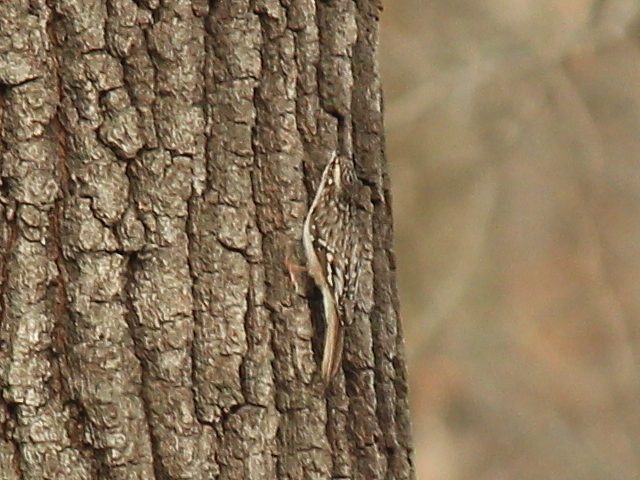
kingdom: Animalia
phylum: Chordata
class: Aves
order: Passeriformes
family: Certhiidae
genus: Certhia
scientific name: Certhia americana
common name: Brown creeper
